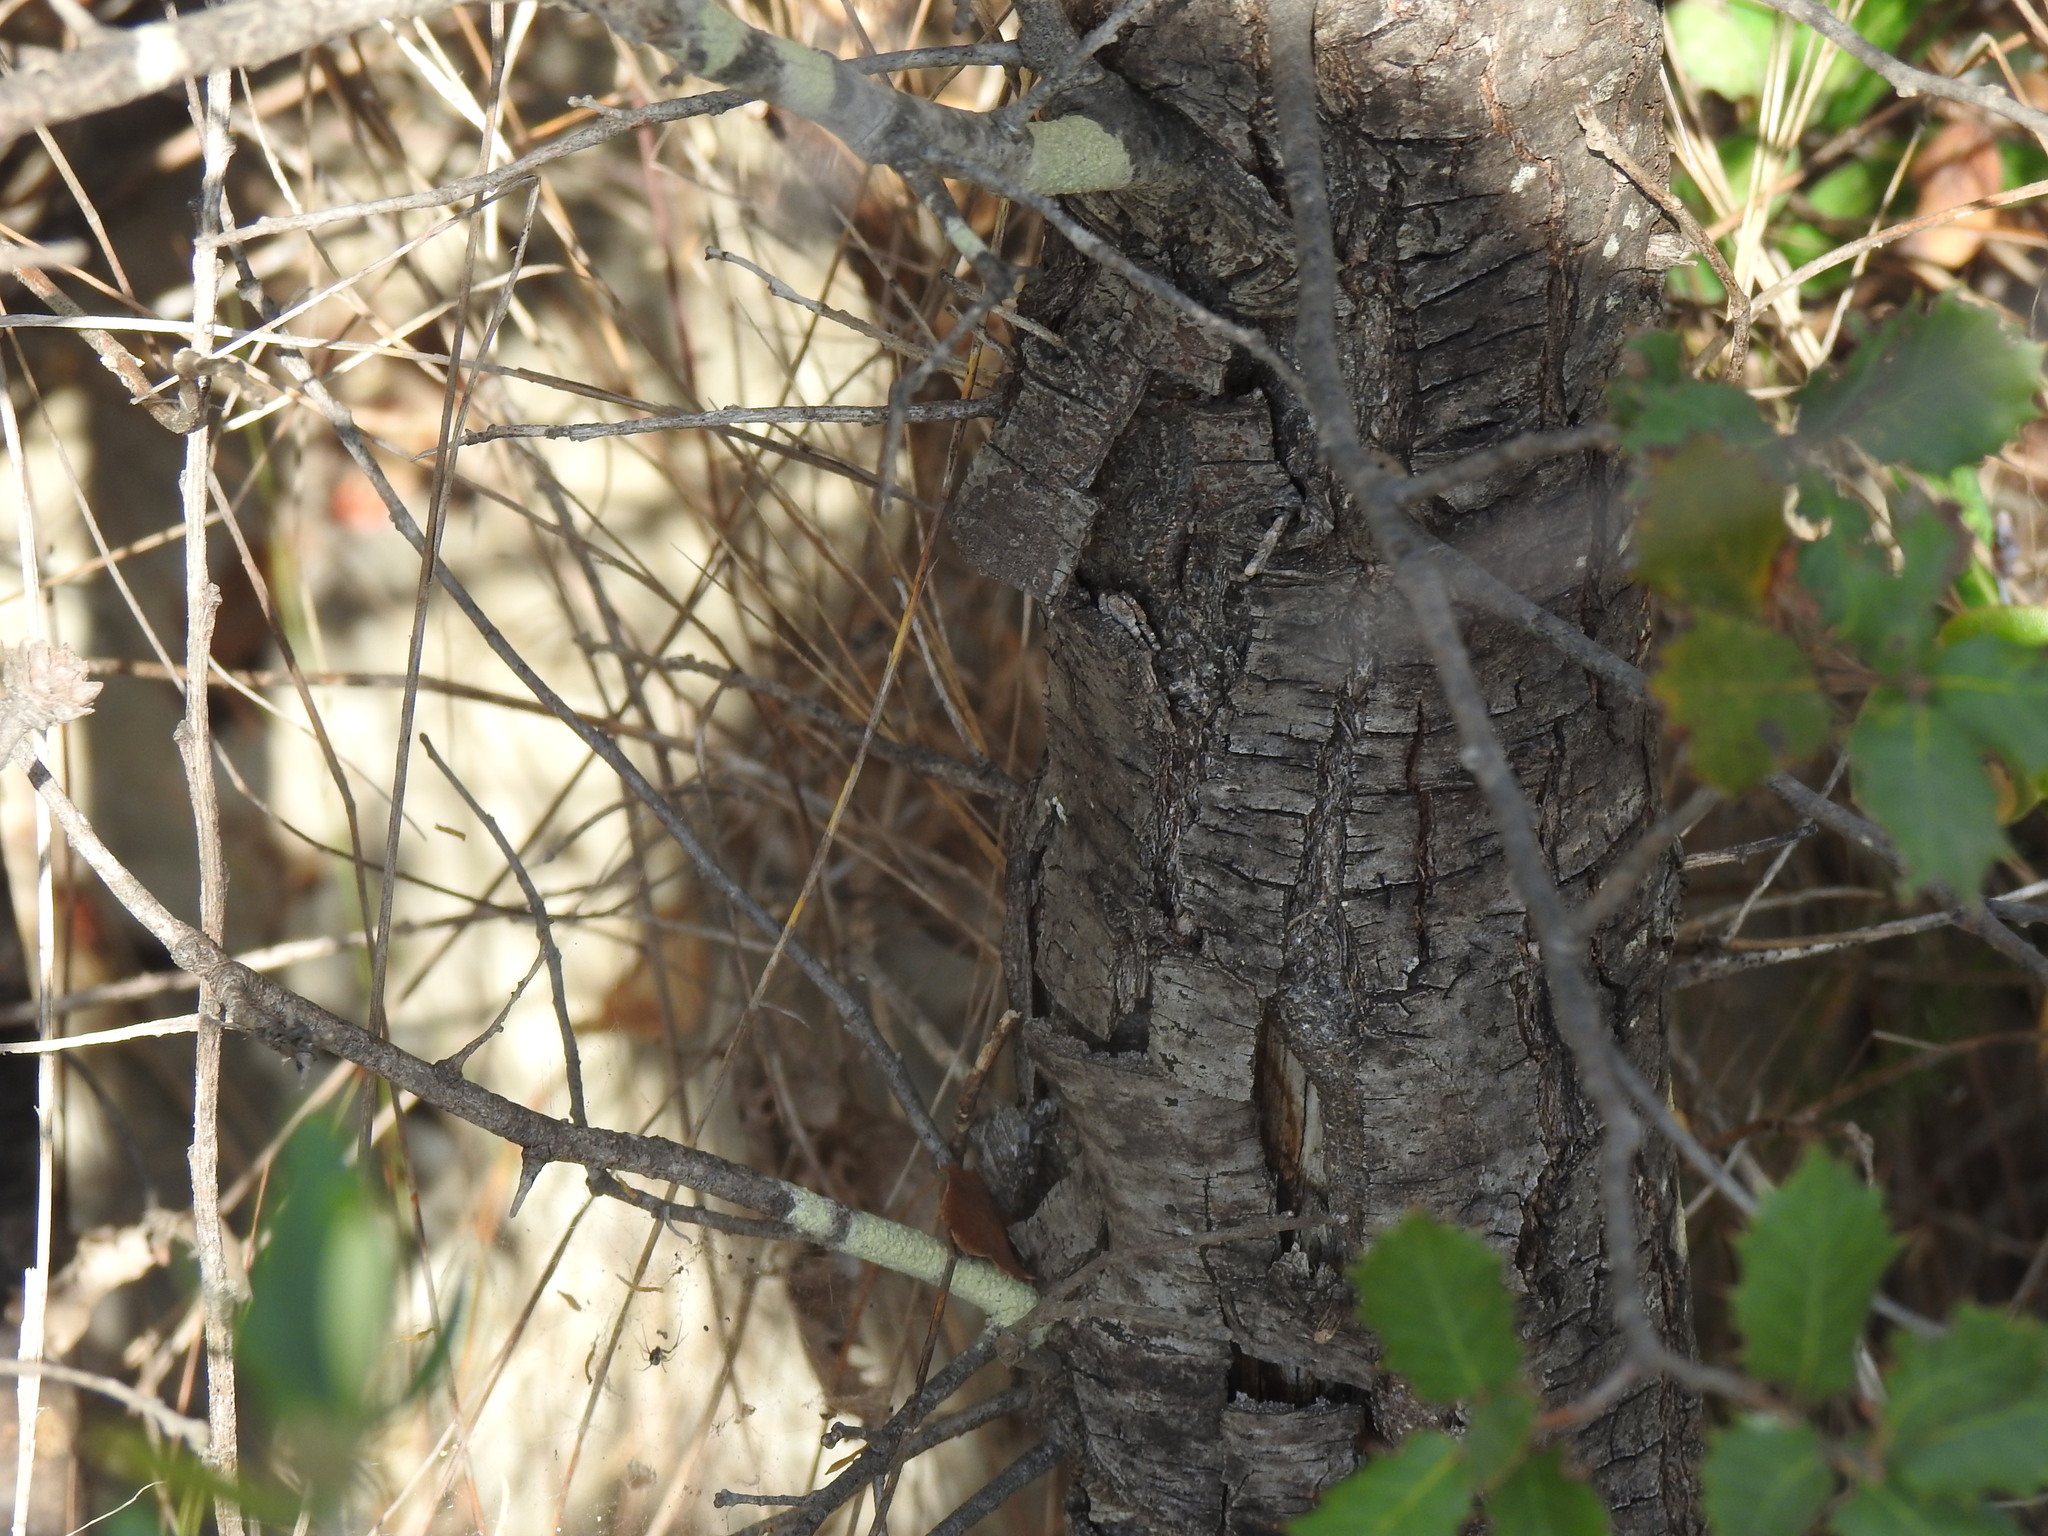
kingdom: Plantae
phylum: Tracheophyta
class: Magnoliopsida
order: Fagales
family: Fagaceae
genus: Quercus
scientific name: Quercus rotundifolia
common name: Holm oak
